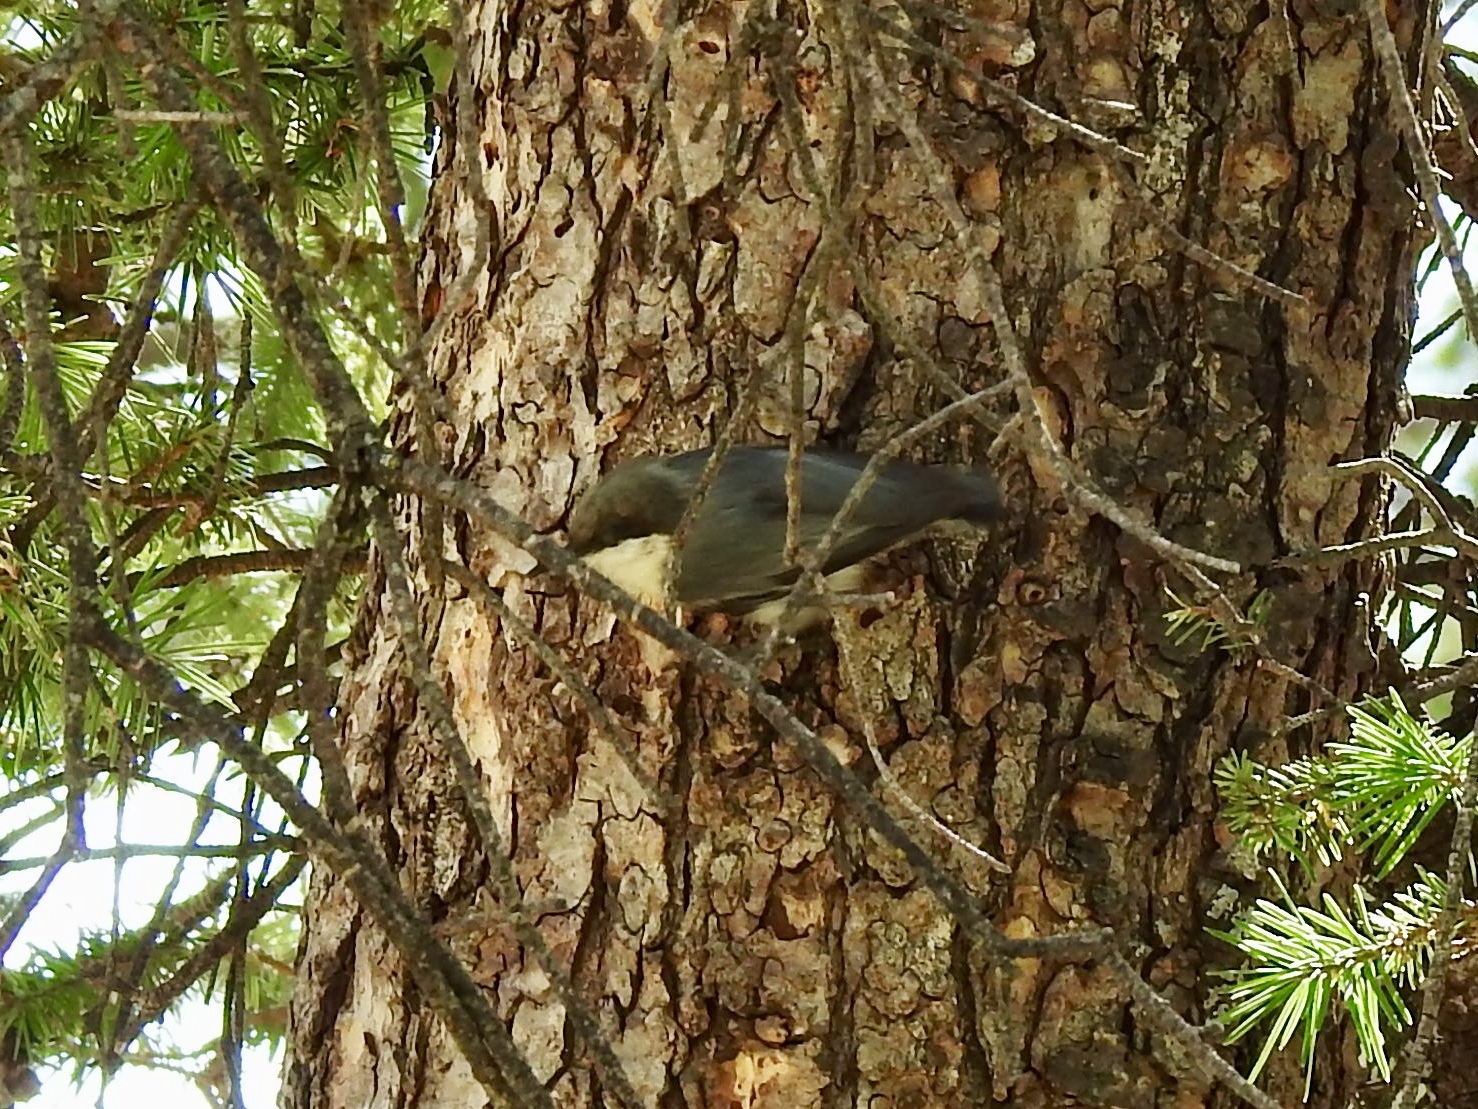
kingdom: Animalia
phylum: Chordata
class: Aves
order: Passeriformes
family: Sittidae
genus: Sitta
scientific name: Sitta pygmaea
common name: Pygmy nuthatch
